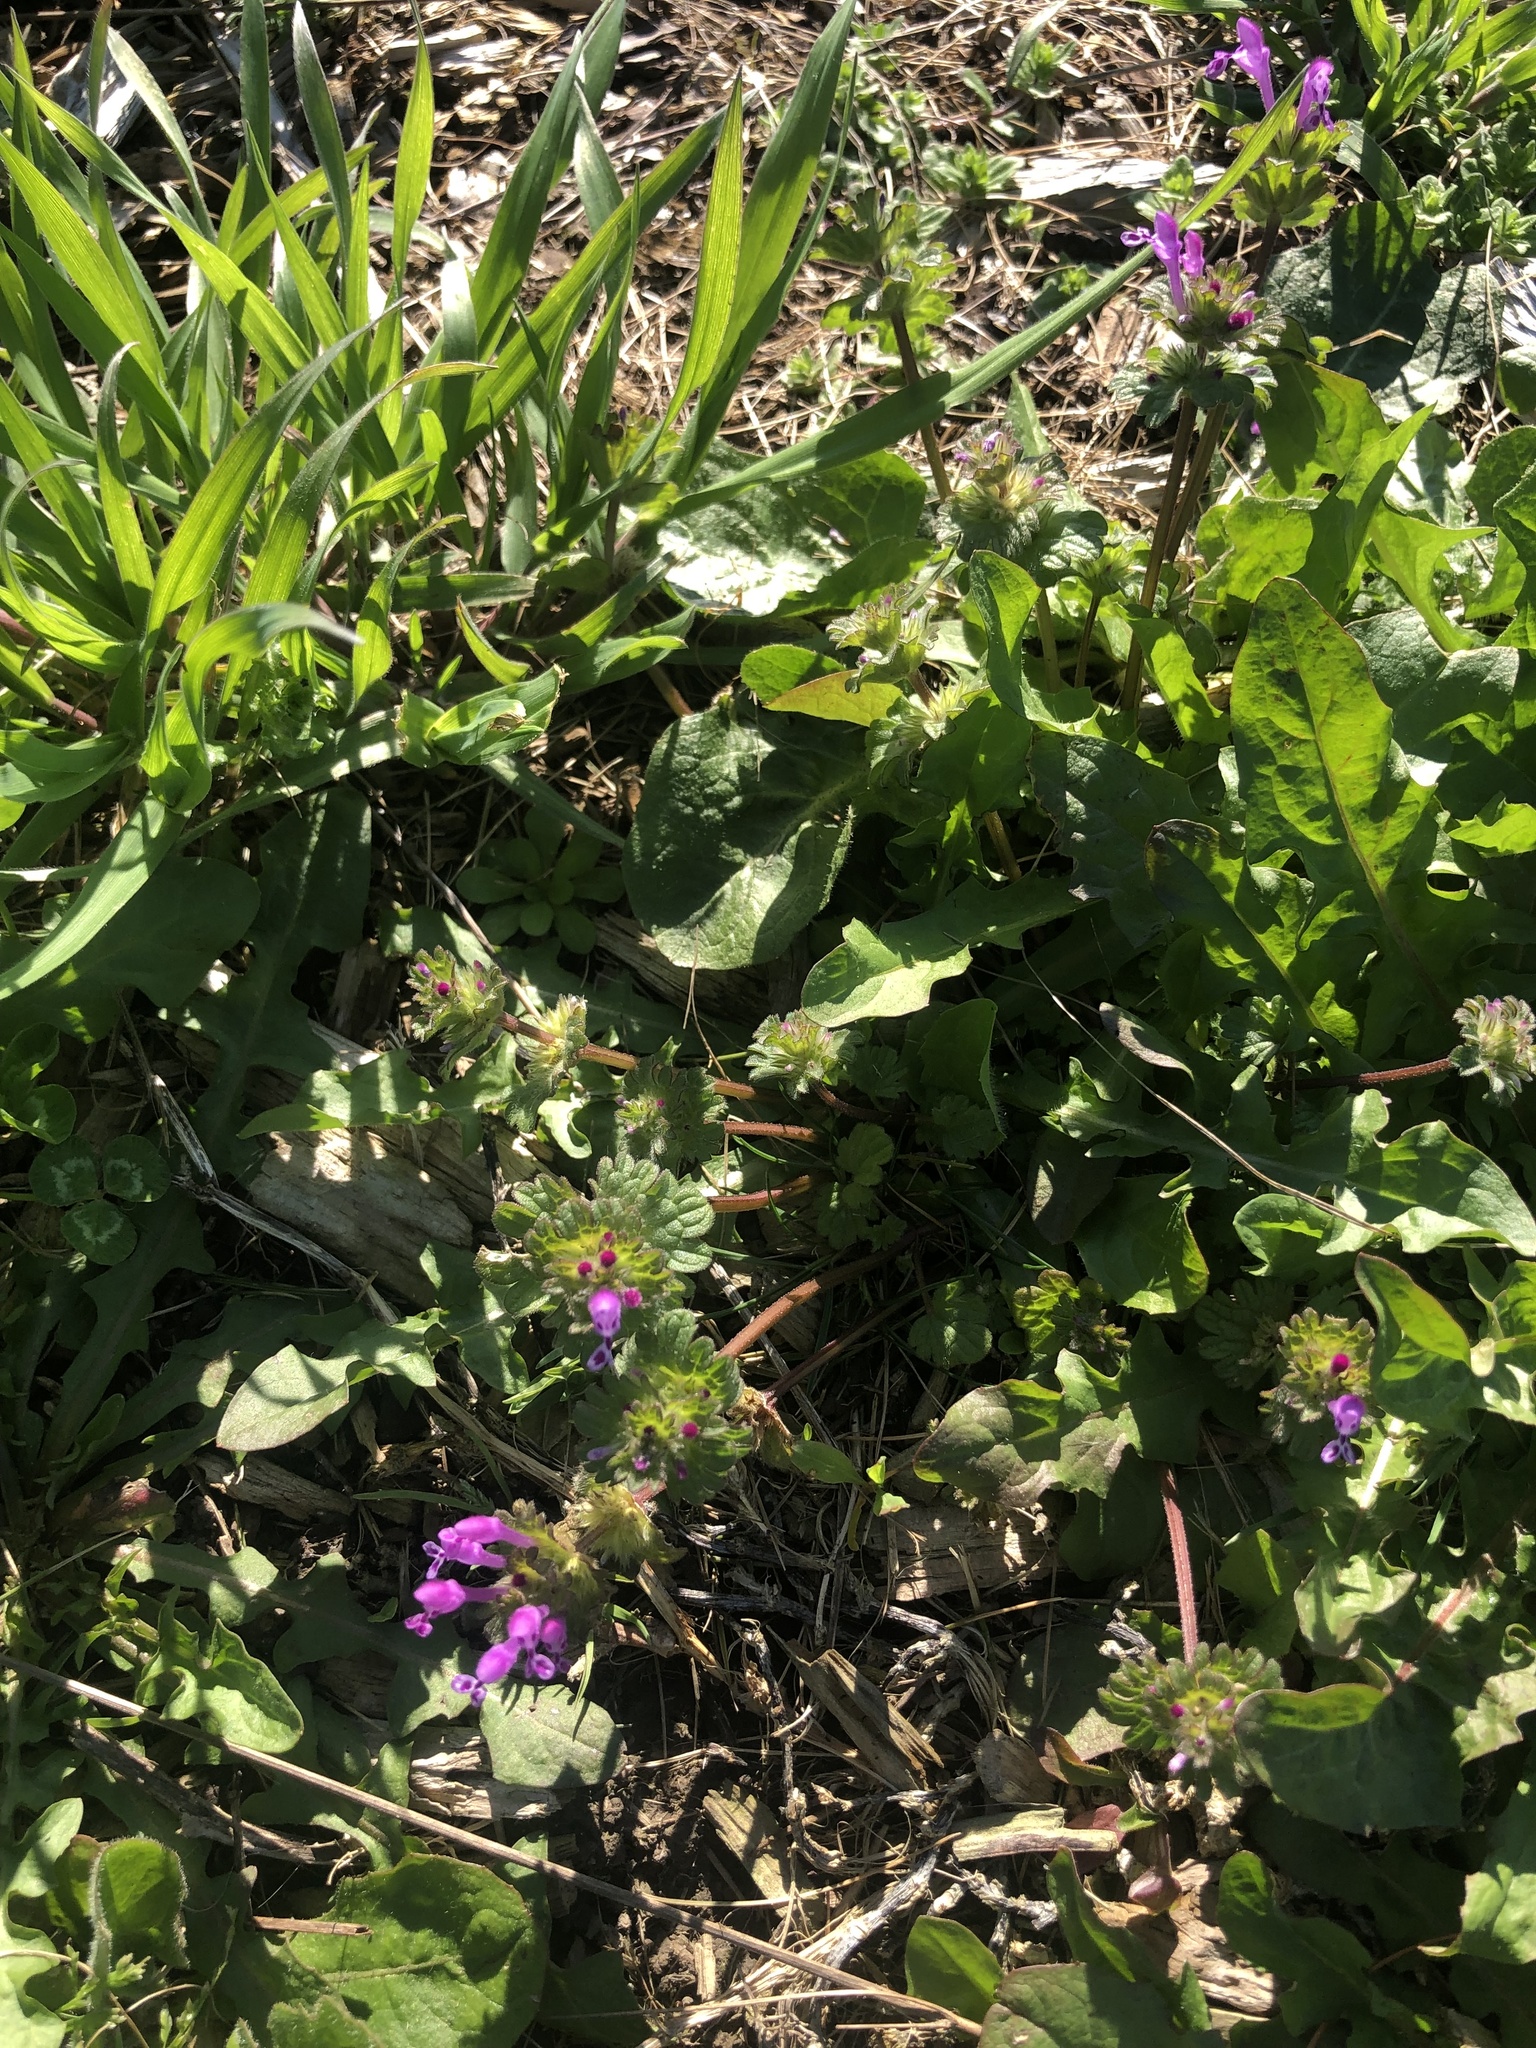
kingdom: Plantae
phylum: Tracheophyta
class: Magnoliopsida
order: Lamiales
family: Lamiaceae
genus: Lamium
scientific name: Lamium amplexicaule
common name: Henbit dead-nettle
